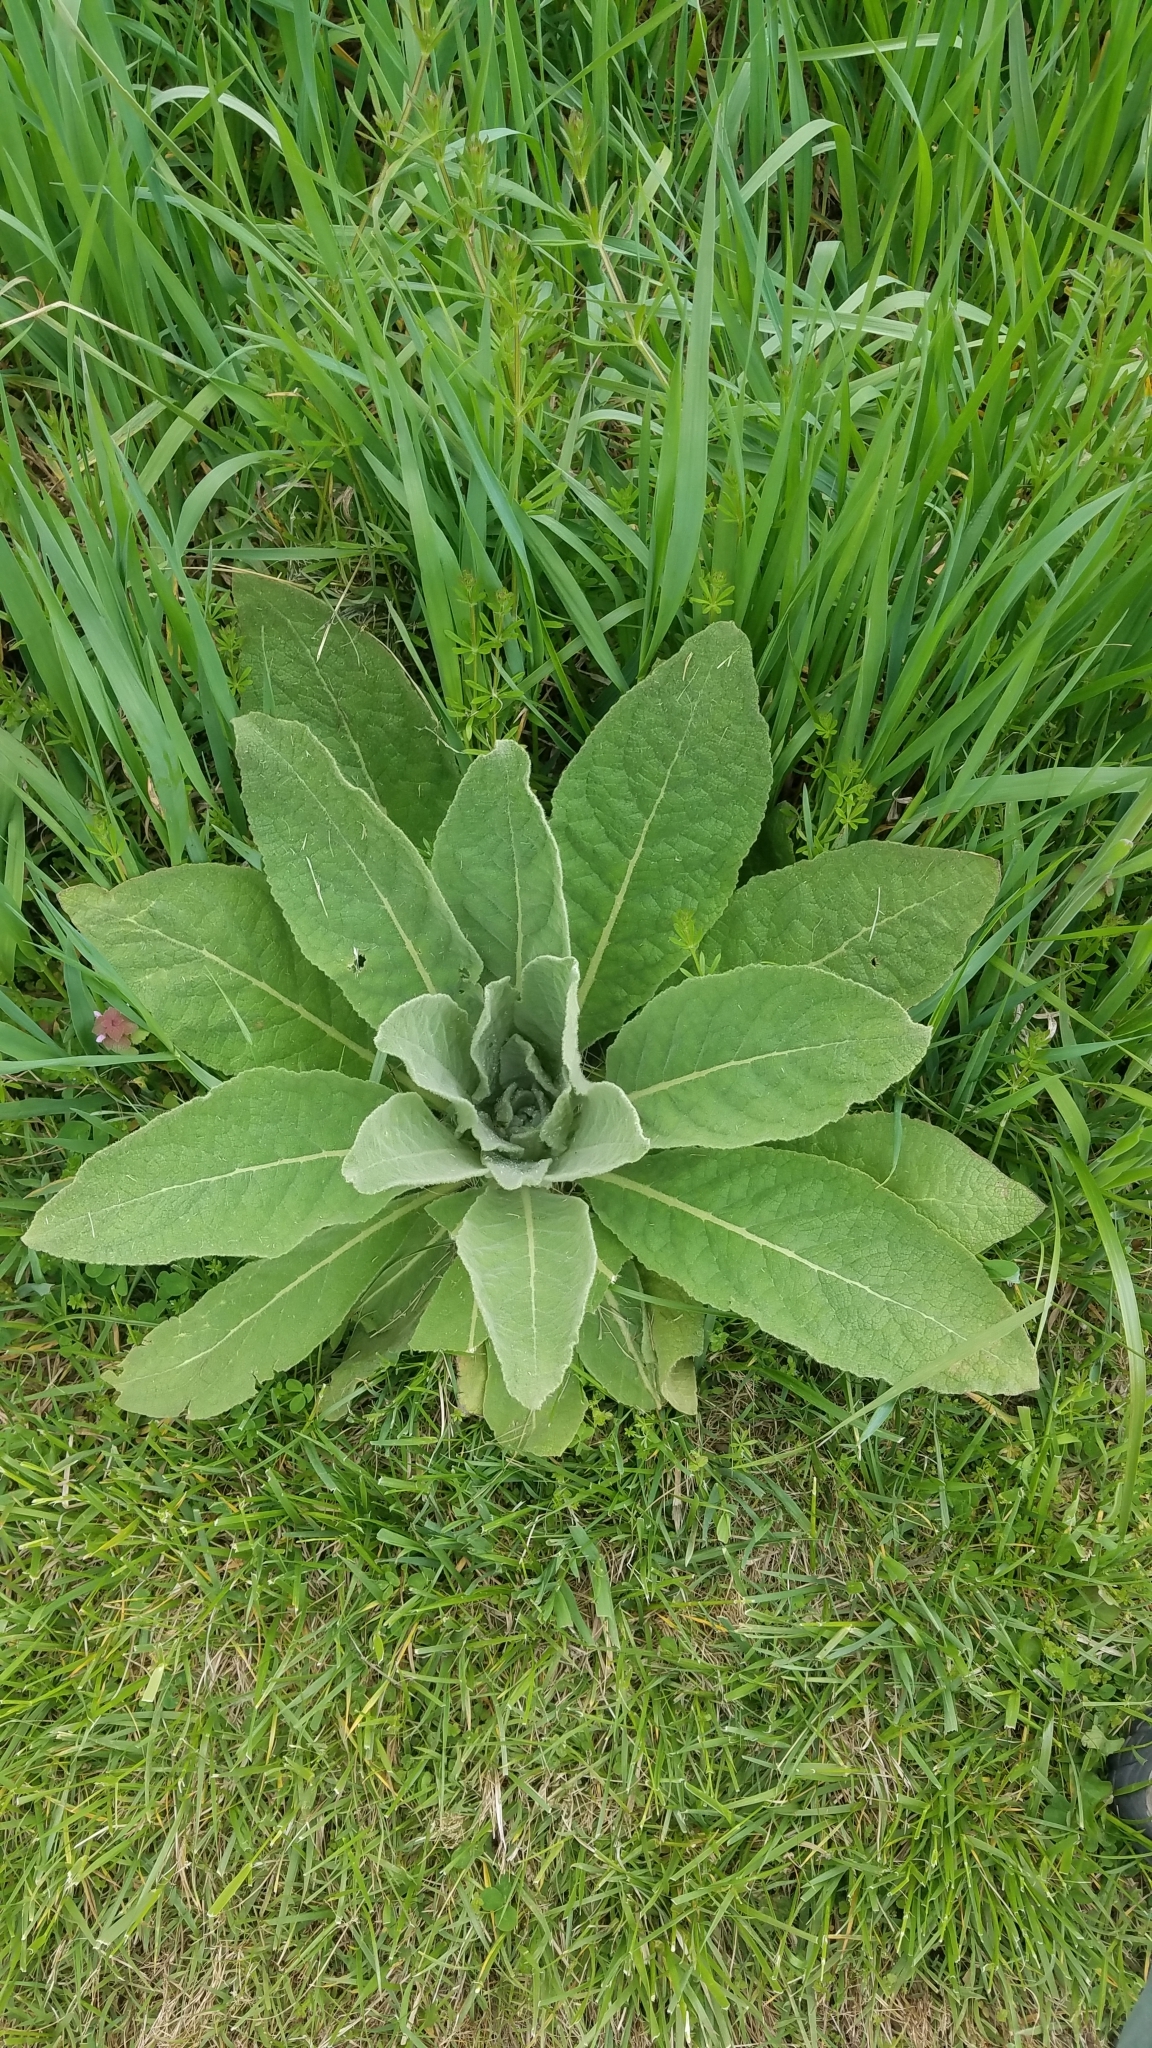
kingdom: Plantae
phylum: Tracheophyta
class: Magnoliopsida
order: Lamiales
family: Scrophulariaceae
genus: Verbascum
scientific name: Verbascum thapsus
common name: Common mullein
